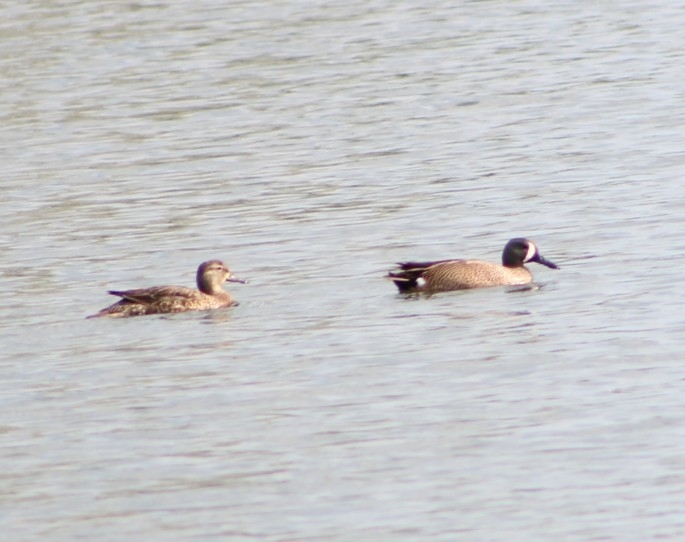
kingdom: Animalia
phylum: Chordata
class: Aves
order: Anseriformes
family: Anatidae
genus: Spatula
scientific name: Spatula discors
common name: Blue-winged teal
